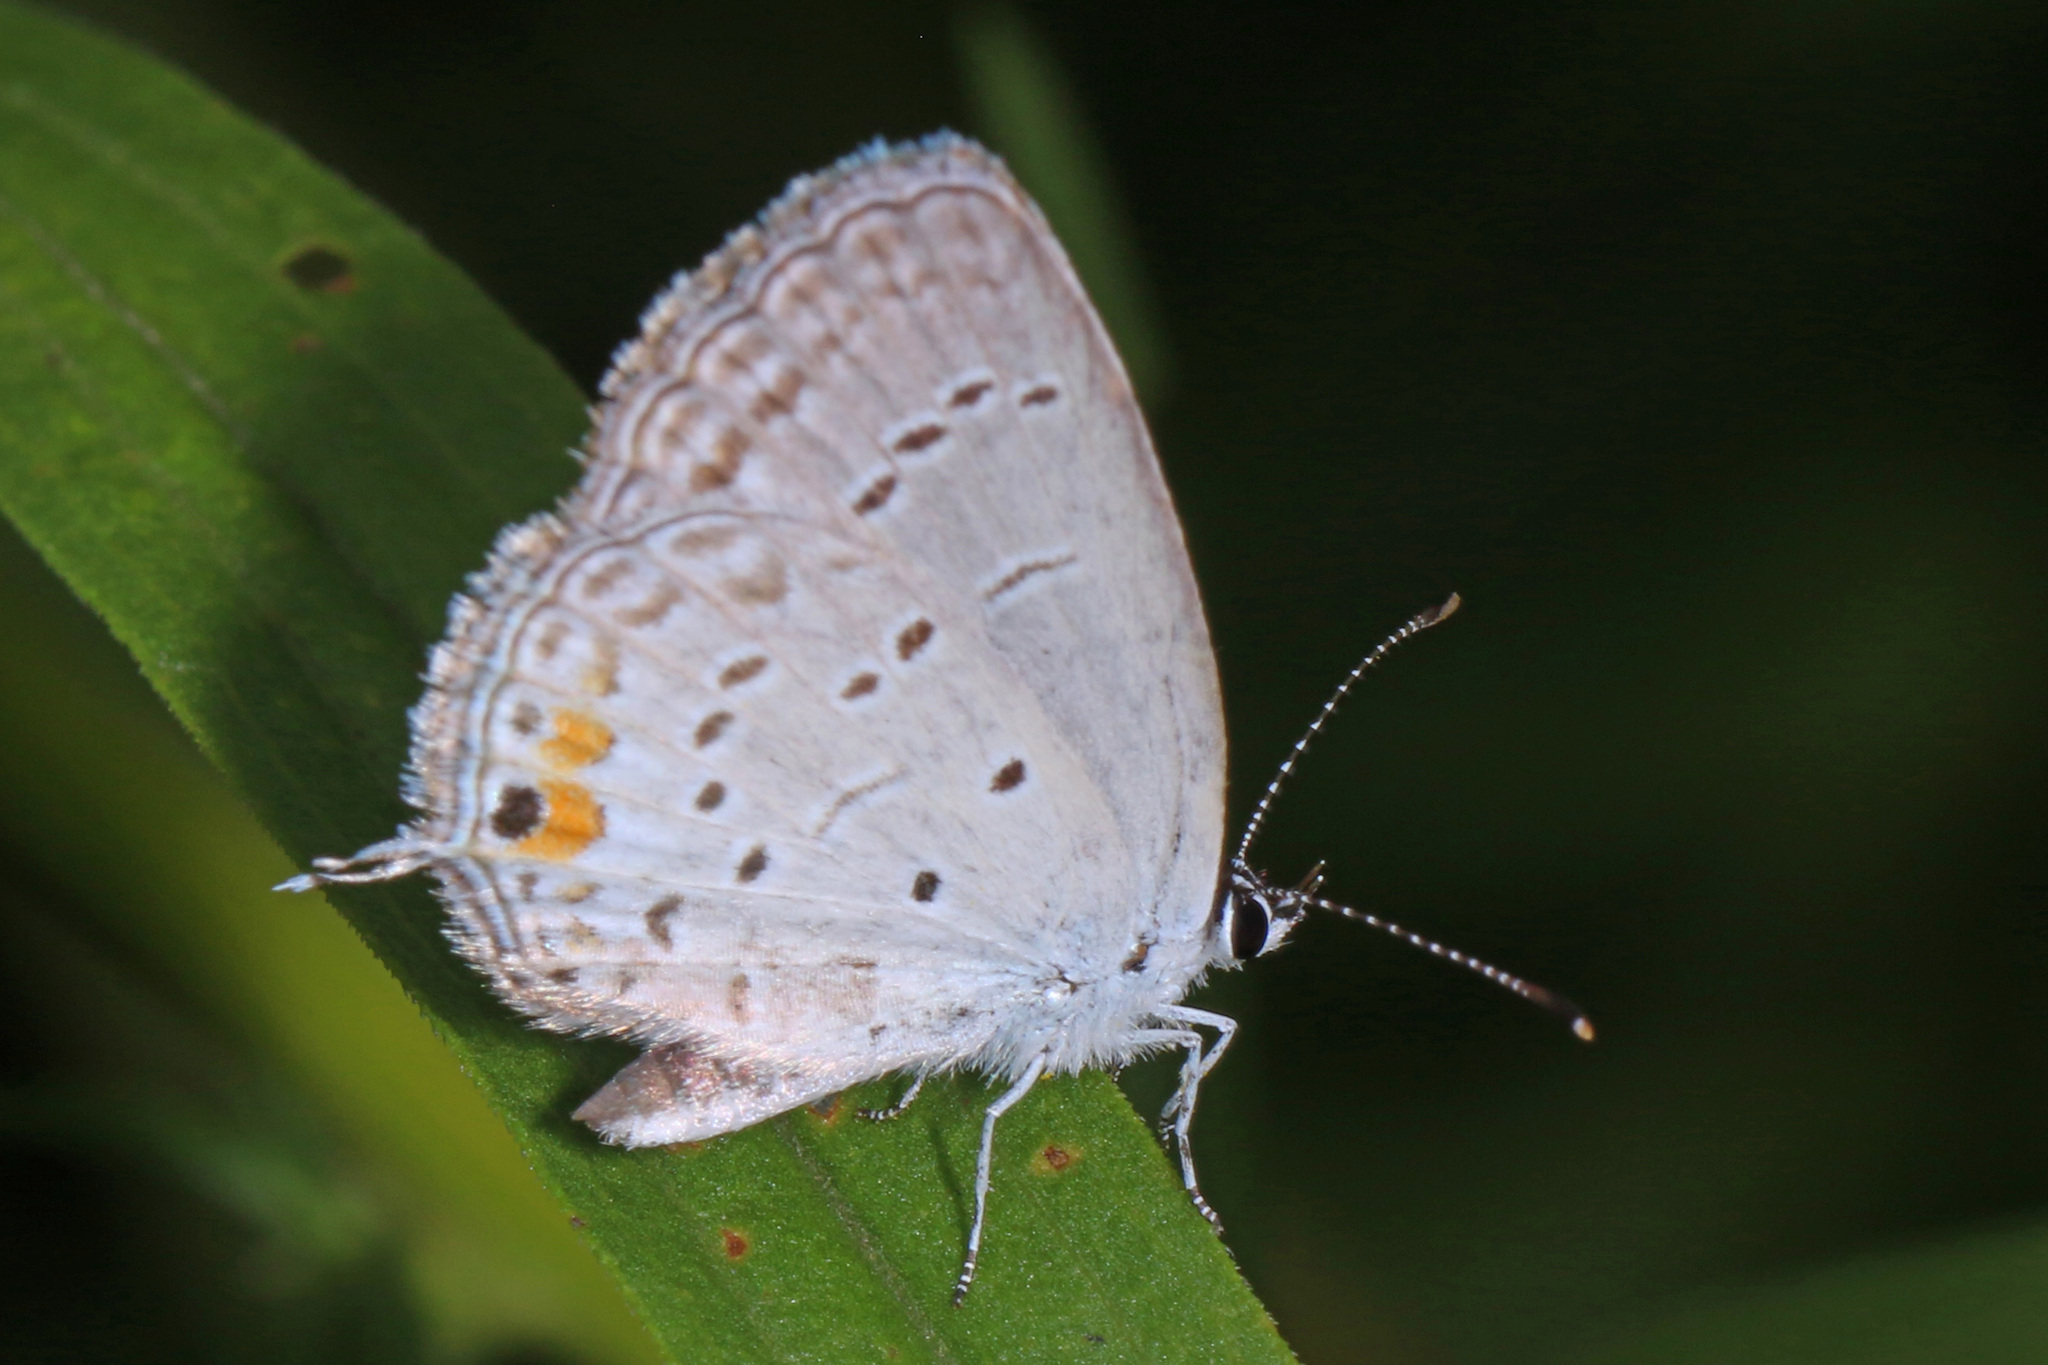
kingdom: Animalia
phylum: Arthropoda
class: Insecta
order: Lepidoptera
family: Lycaenidae
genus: Elkalyce
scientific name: Elkalyce comyntas
